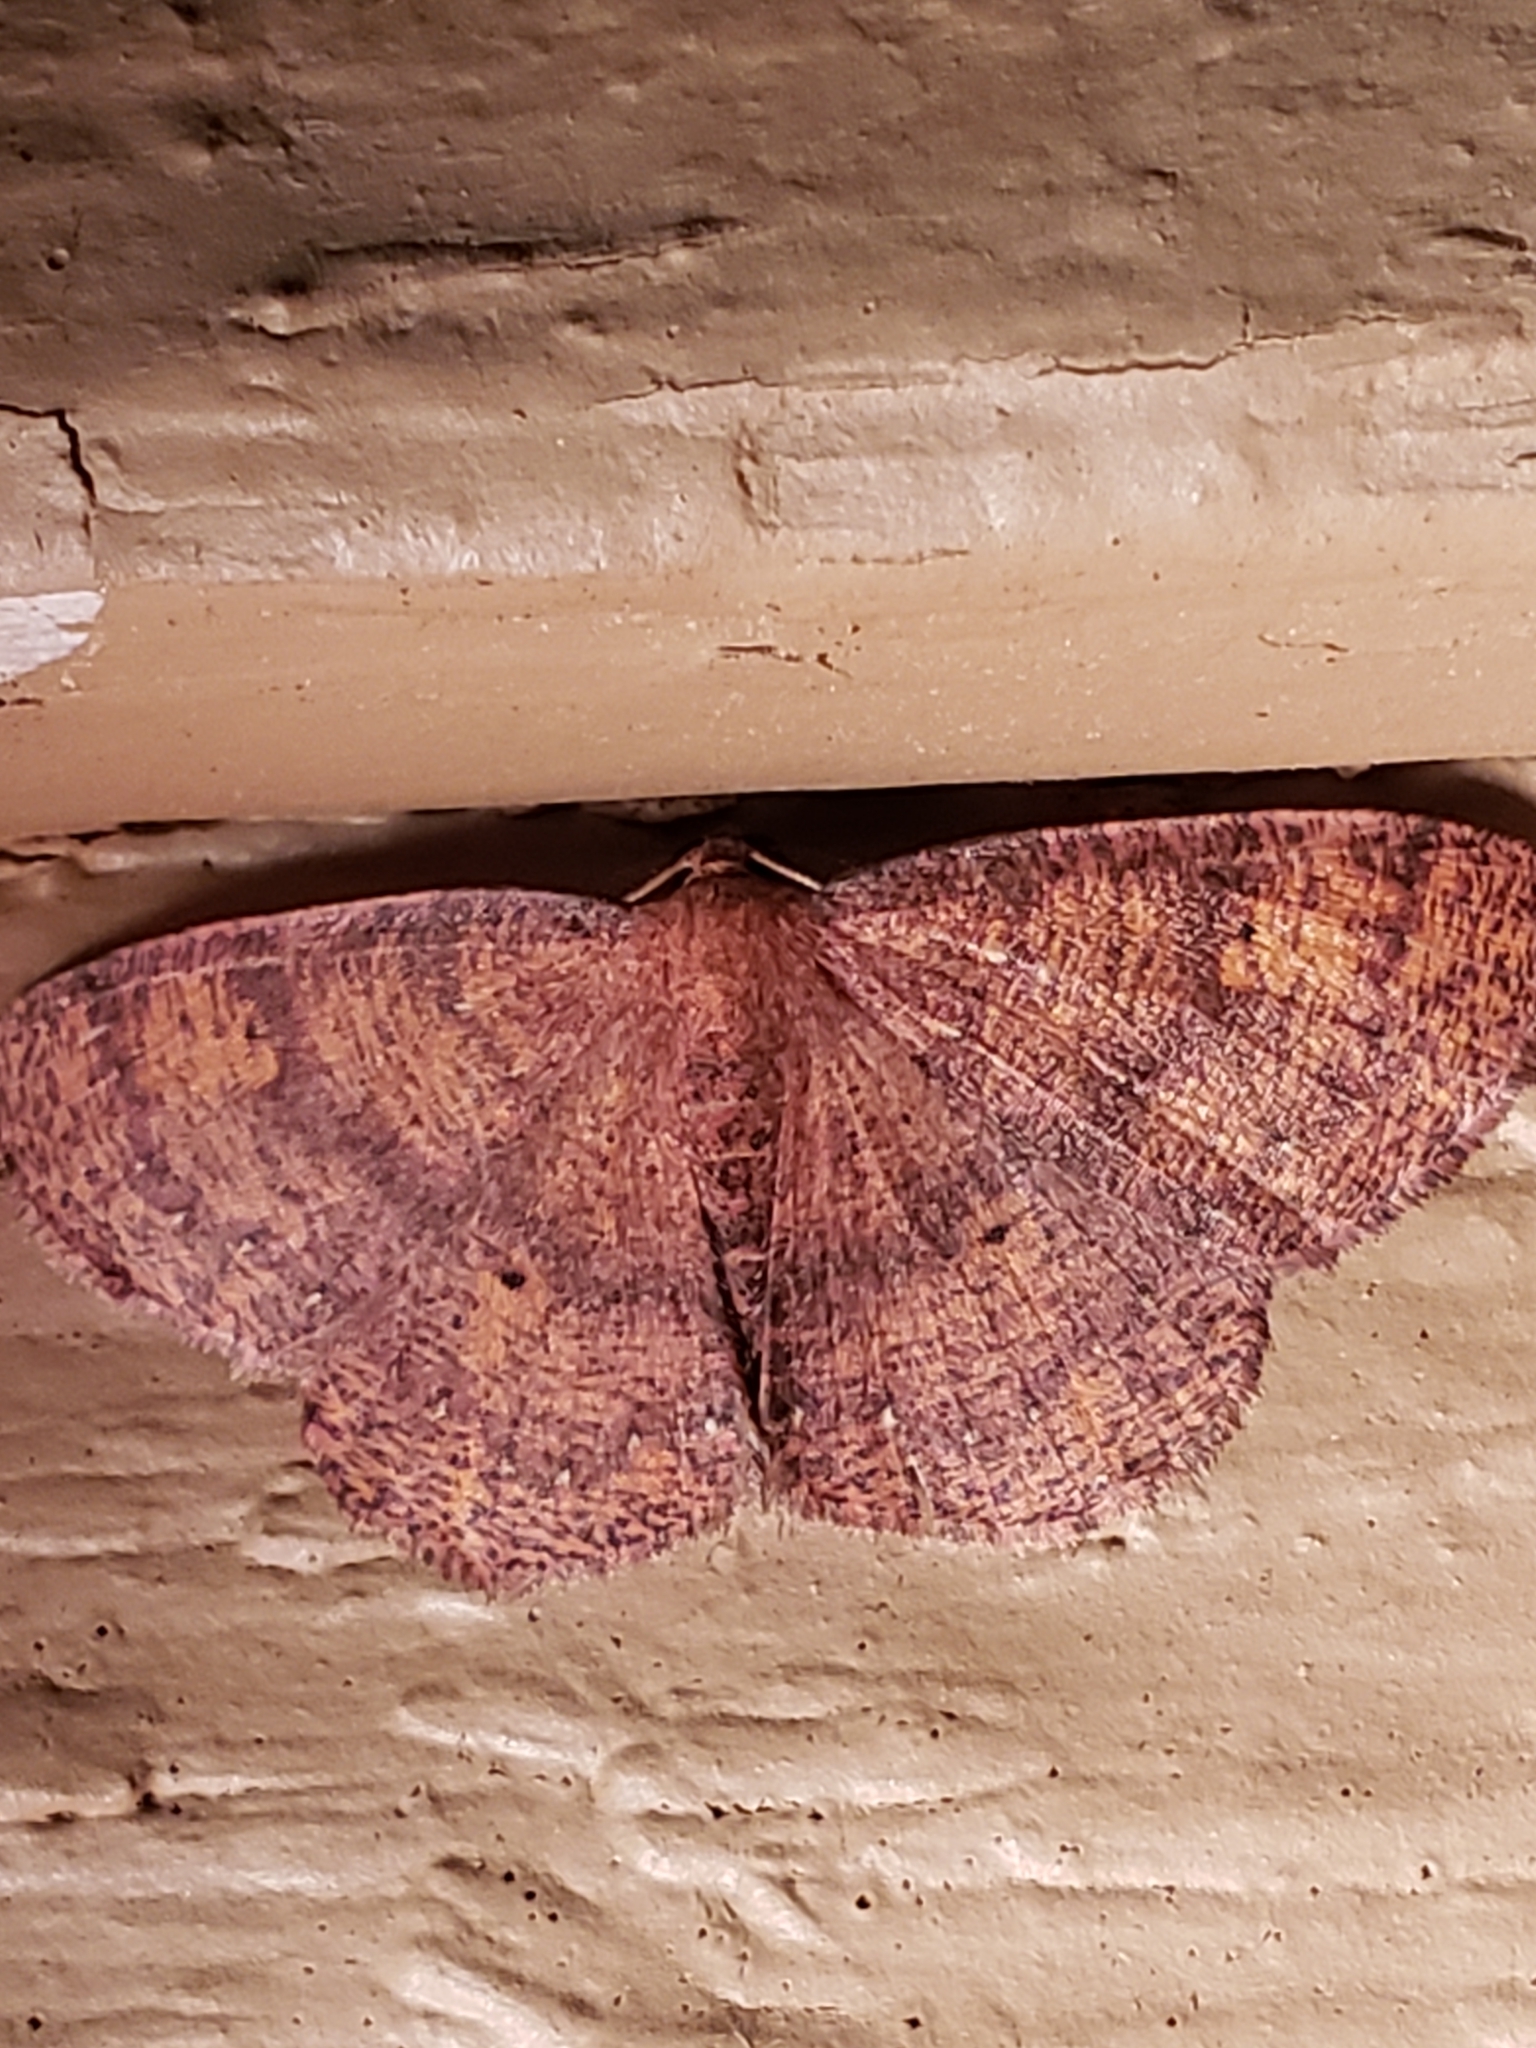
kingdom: Animalia
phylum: Arthropoda
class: Insecta
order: Lepidoptera
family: Geometridae
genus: Ilexia
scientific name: Ilexia intractata
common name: Black-dotted ruddy moth
